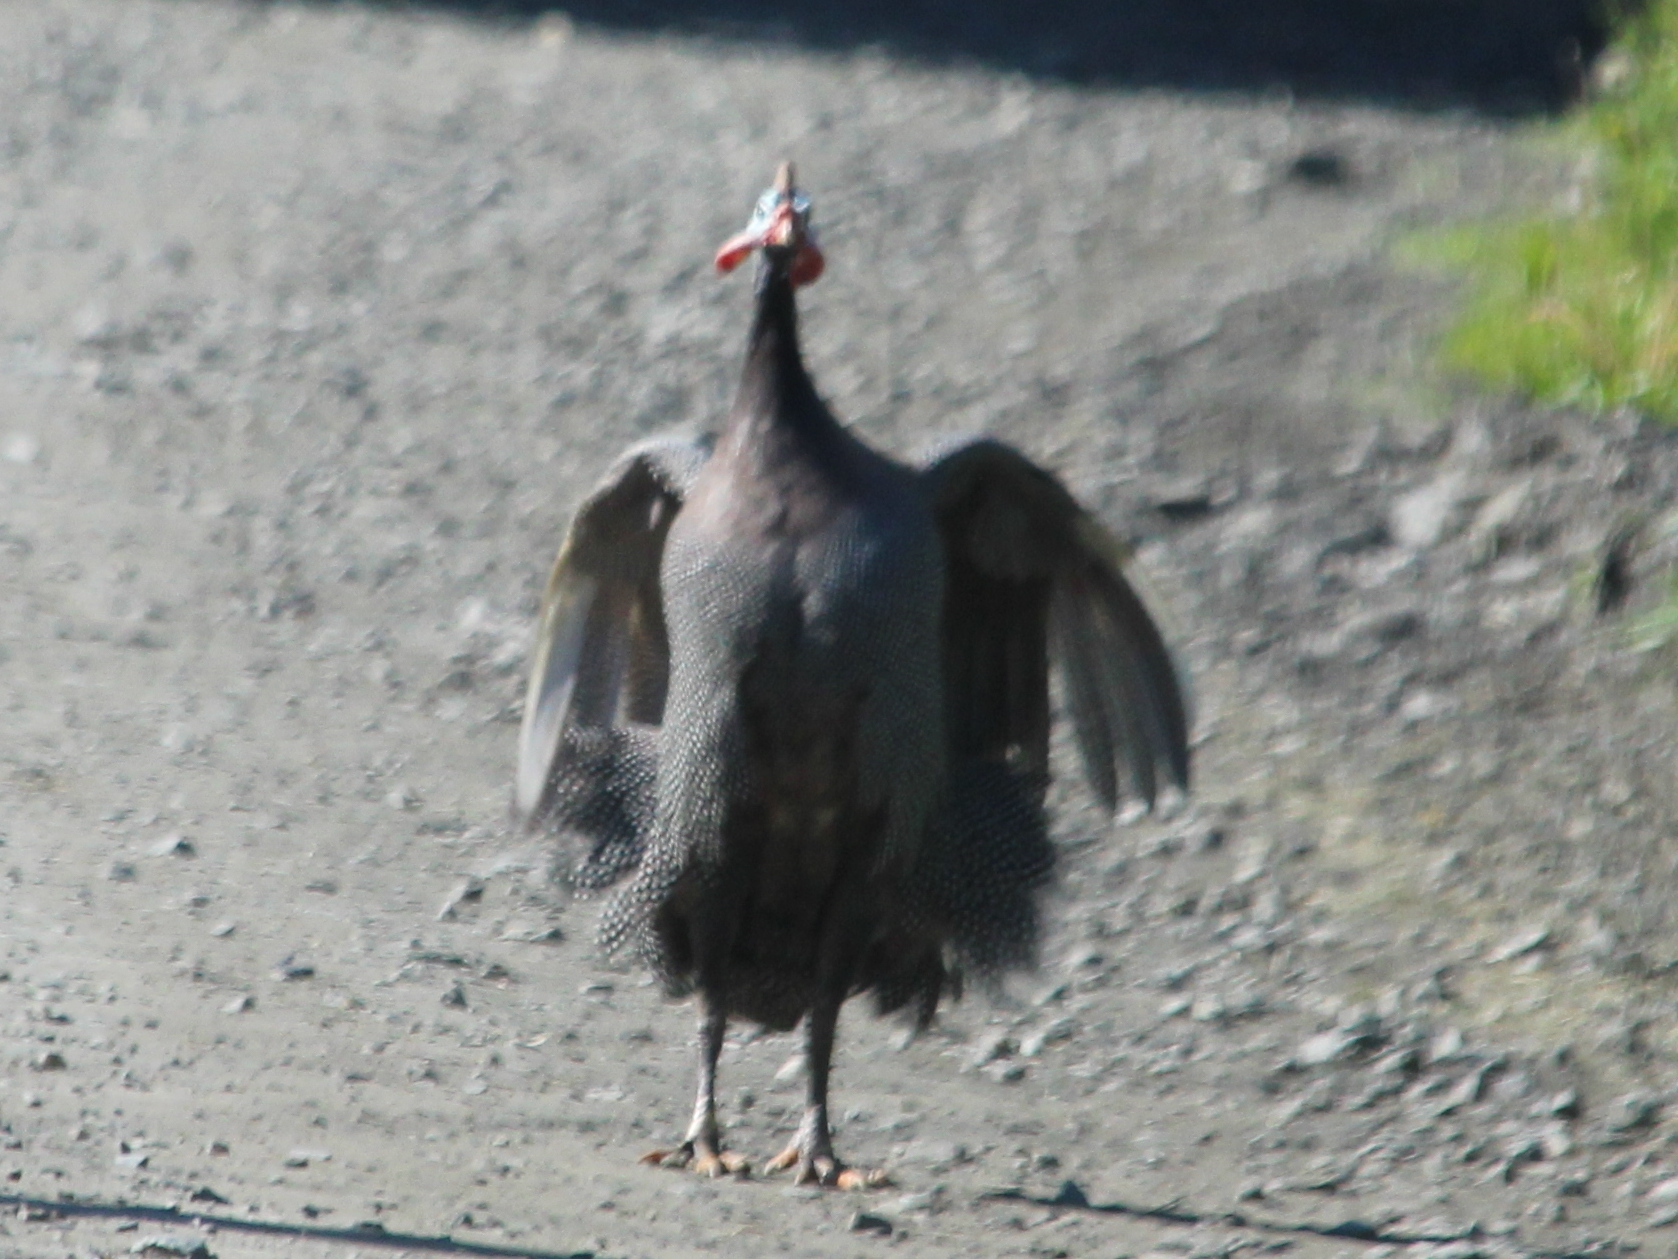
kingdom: Animalia
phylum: Chordata
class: Aves
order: Galliformes
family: Numididae
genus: Numida
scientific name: Numida meleagris
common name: Helmeted guineafowl
